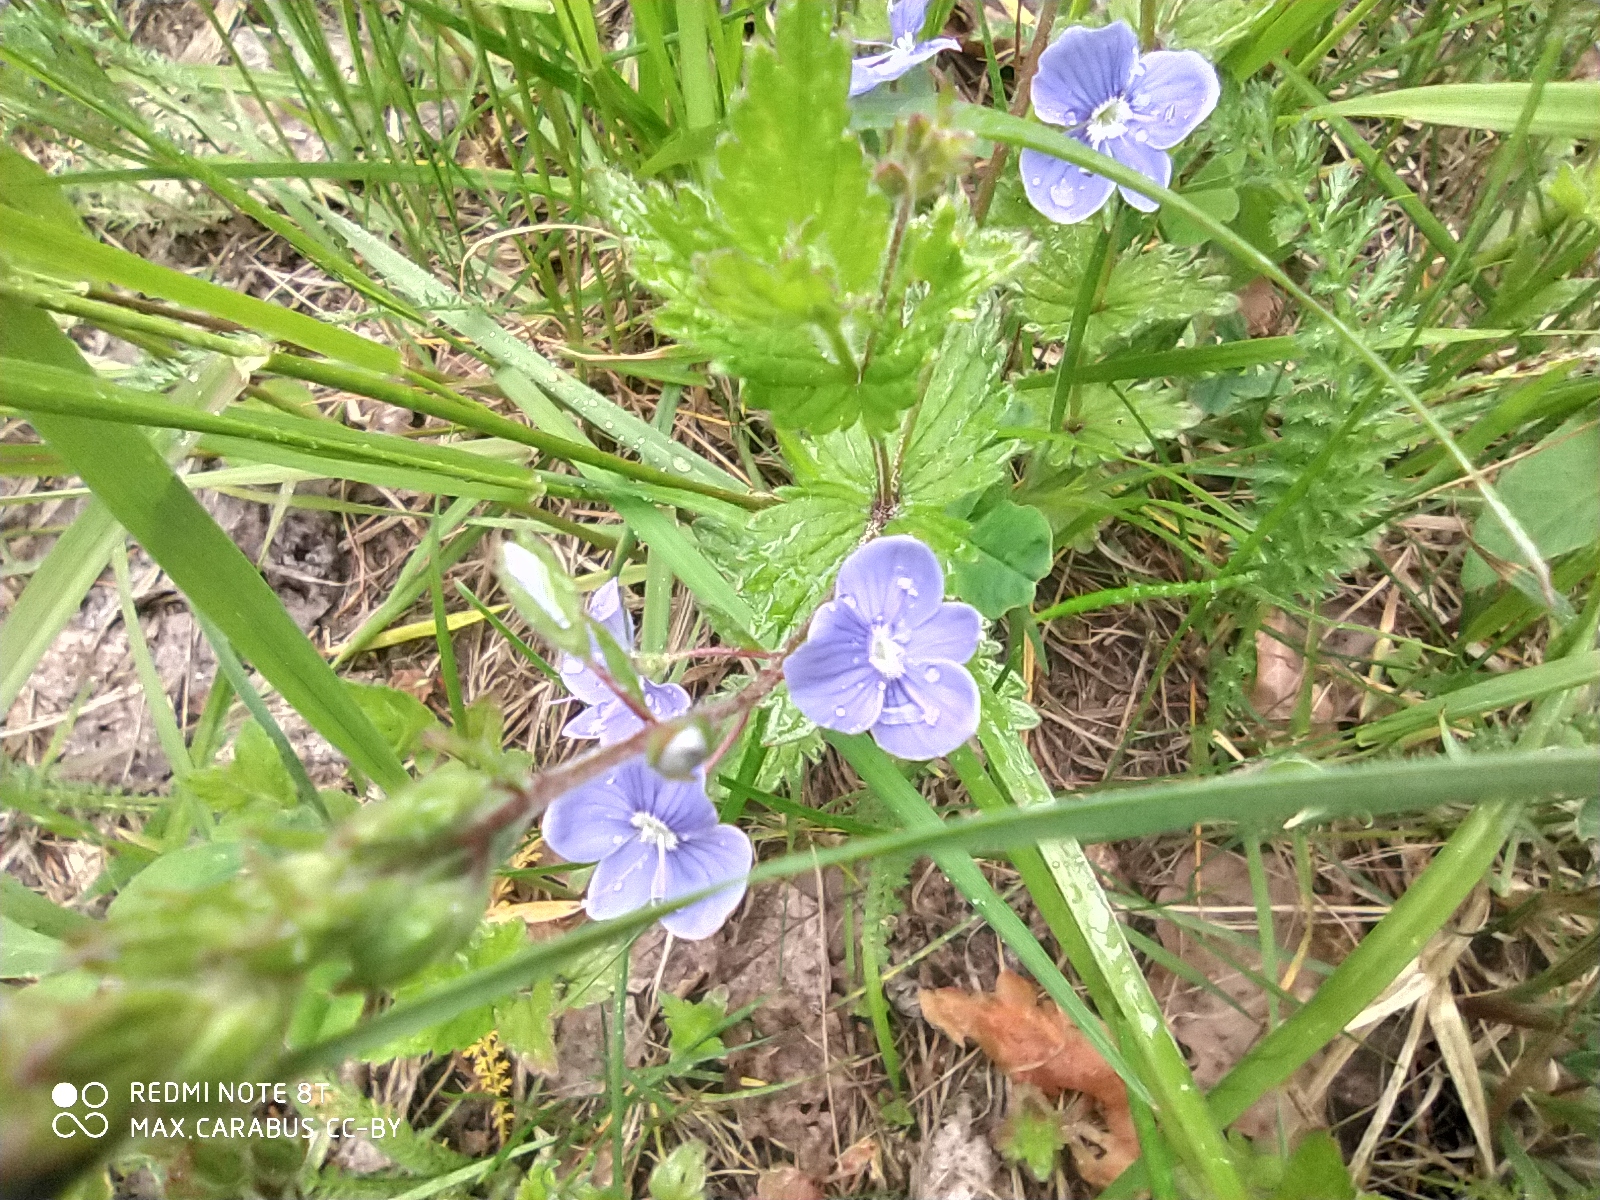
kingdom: Plantae
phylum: Tracheophyta
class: Magnoliopsida
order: Lamiales
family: Plantaginaceae
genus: Veronica
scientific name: Veronica chamaedrys
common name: Germander speedwell
